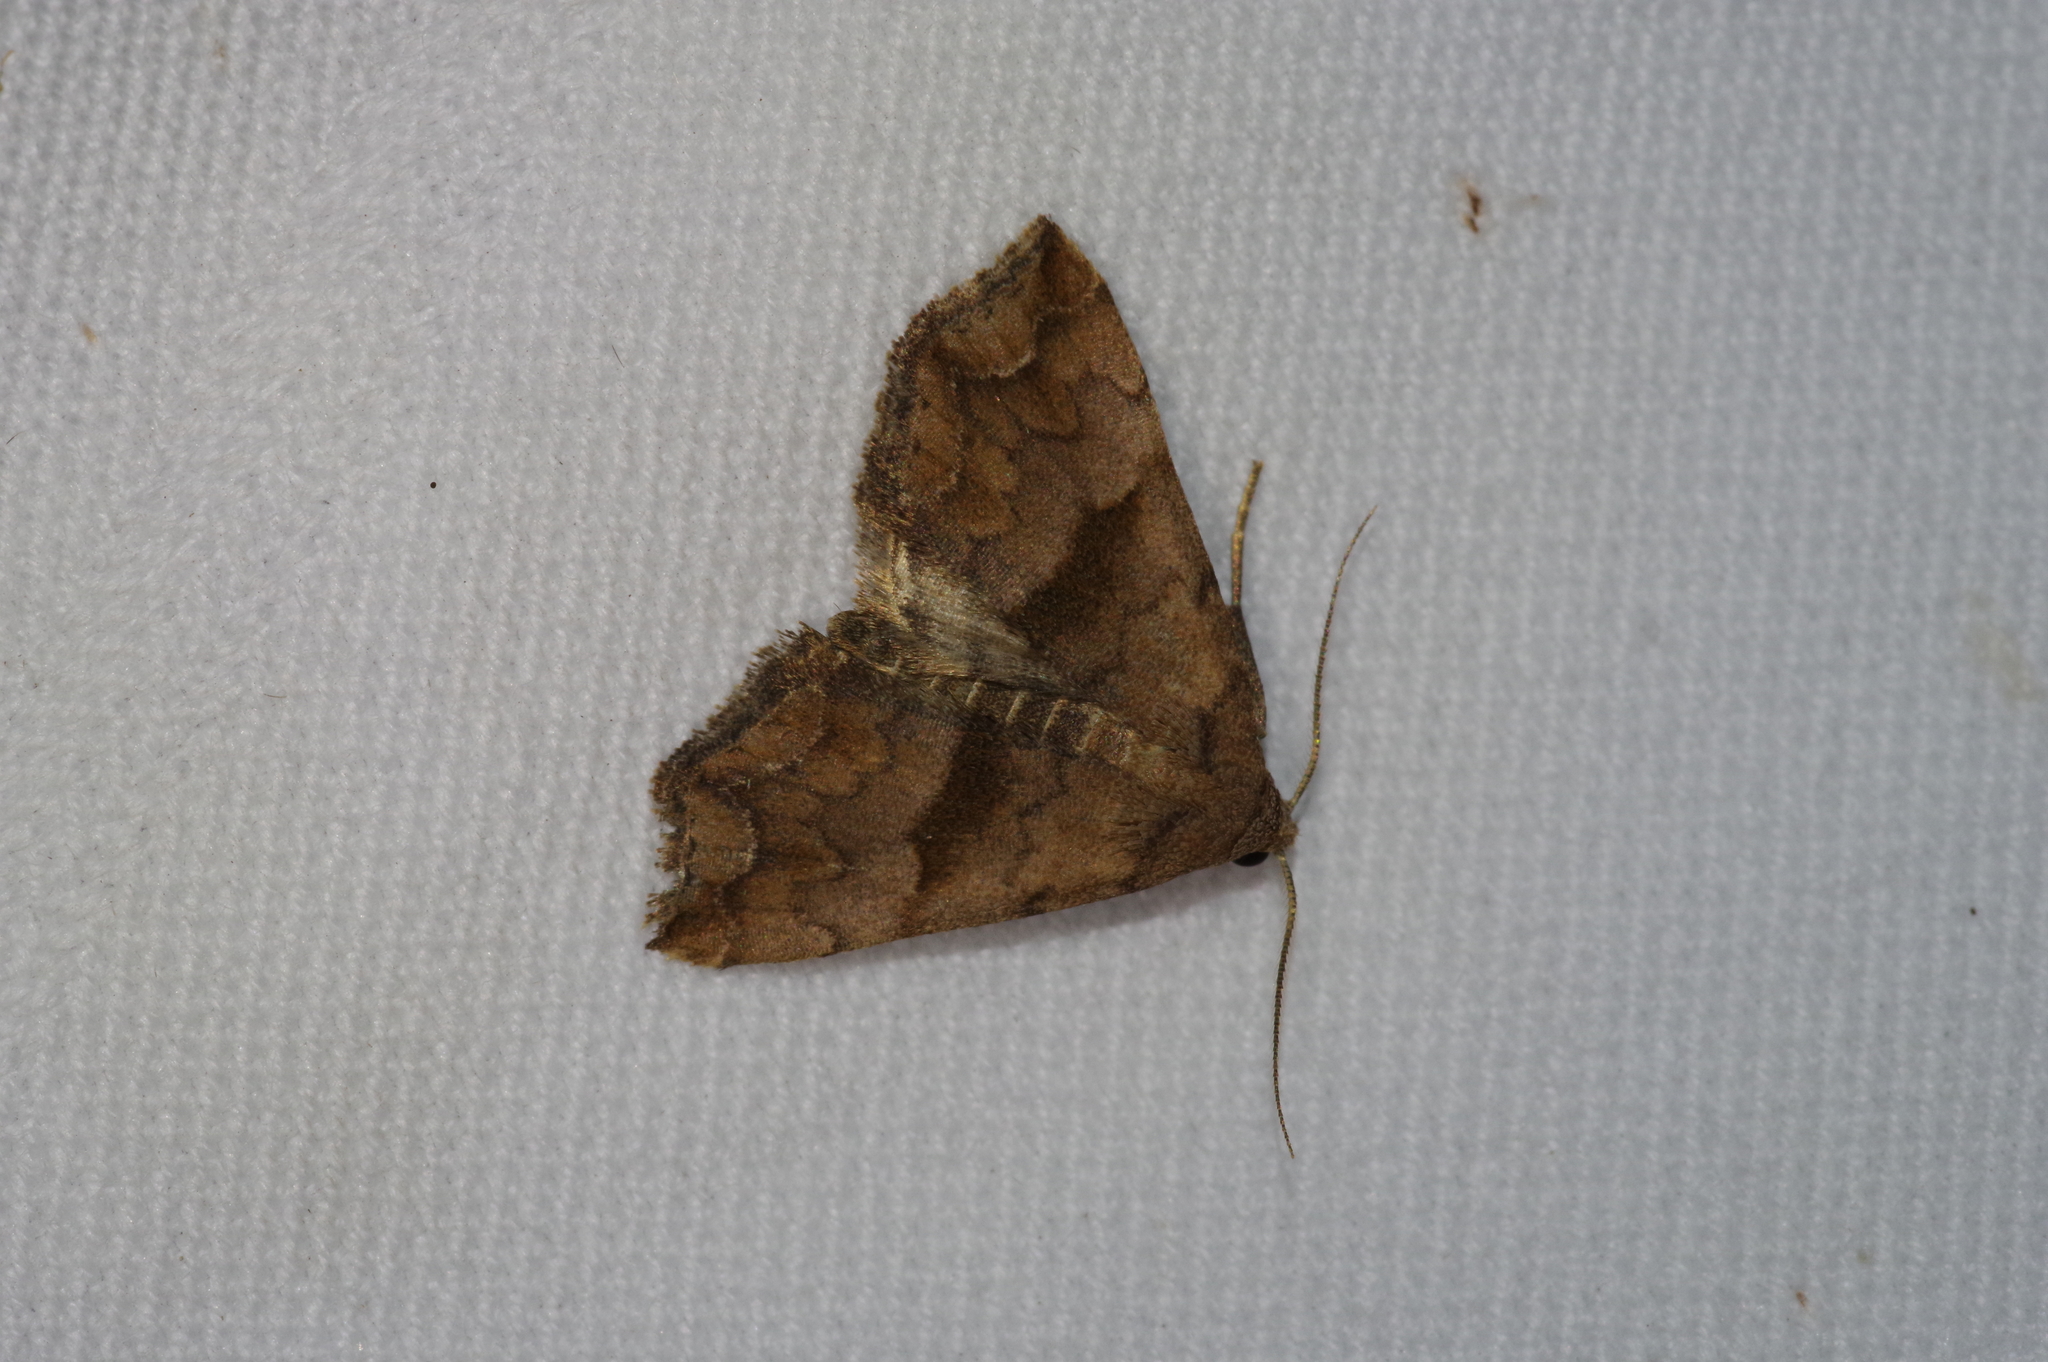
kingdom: Animalia
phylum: Arthropoda
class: Insecta
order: Lepidoptera
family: Erebidae
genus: Polypogon
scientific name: Polypogon Hipoepa fractalis
